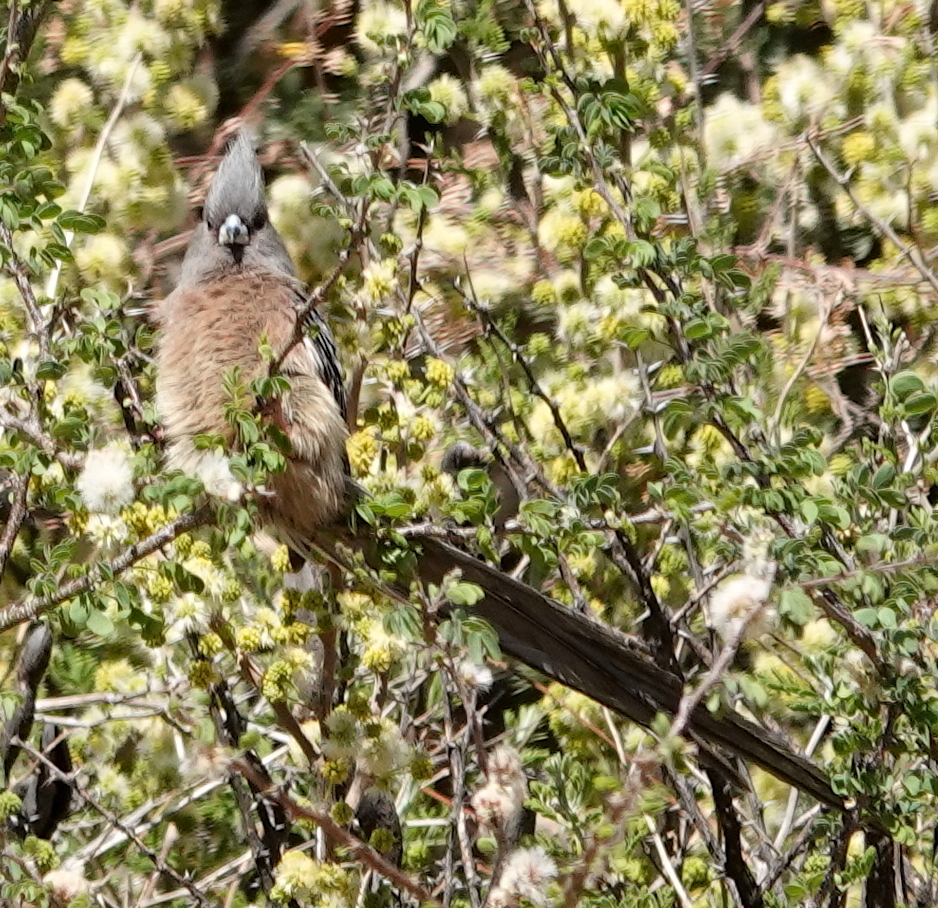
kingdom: Animalia
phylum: Chordata
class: Aves
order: Coliiformes
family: Coliidae
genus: Colius
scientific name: Colius colius
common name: White-backed mousebird
